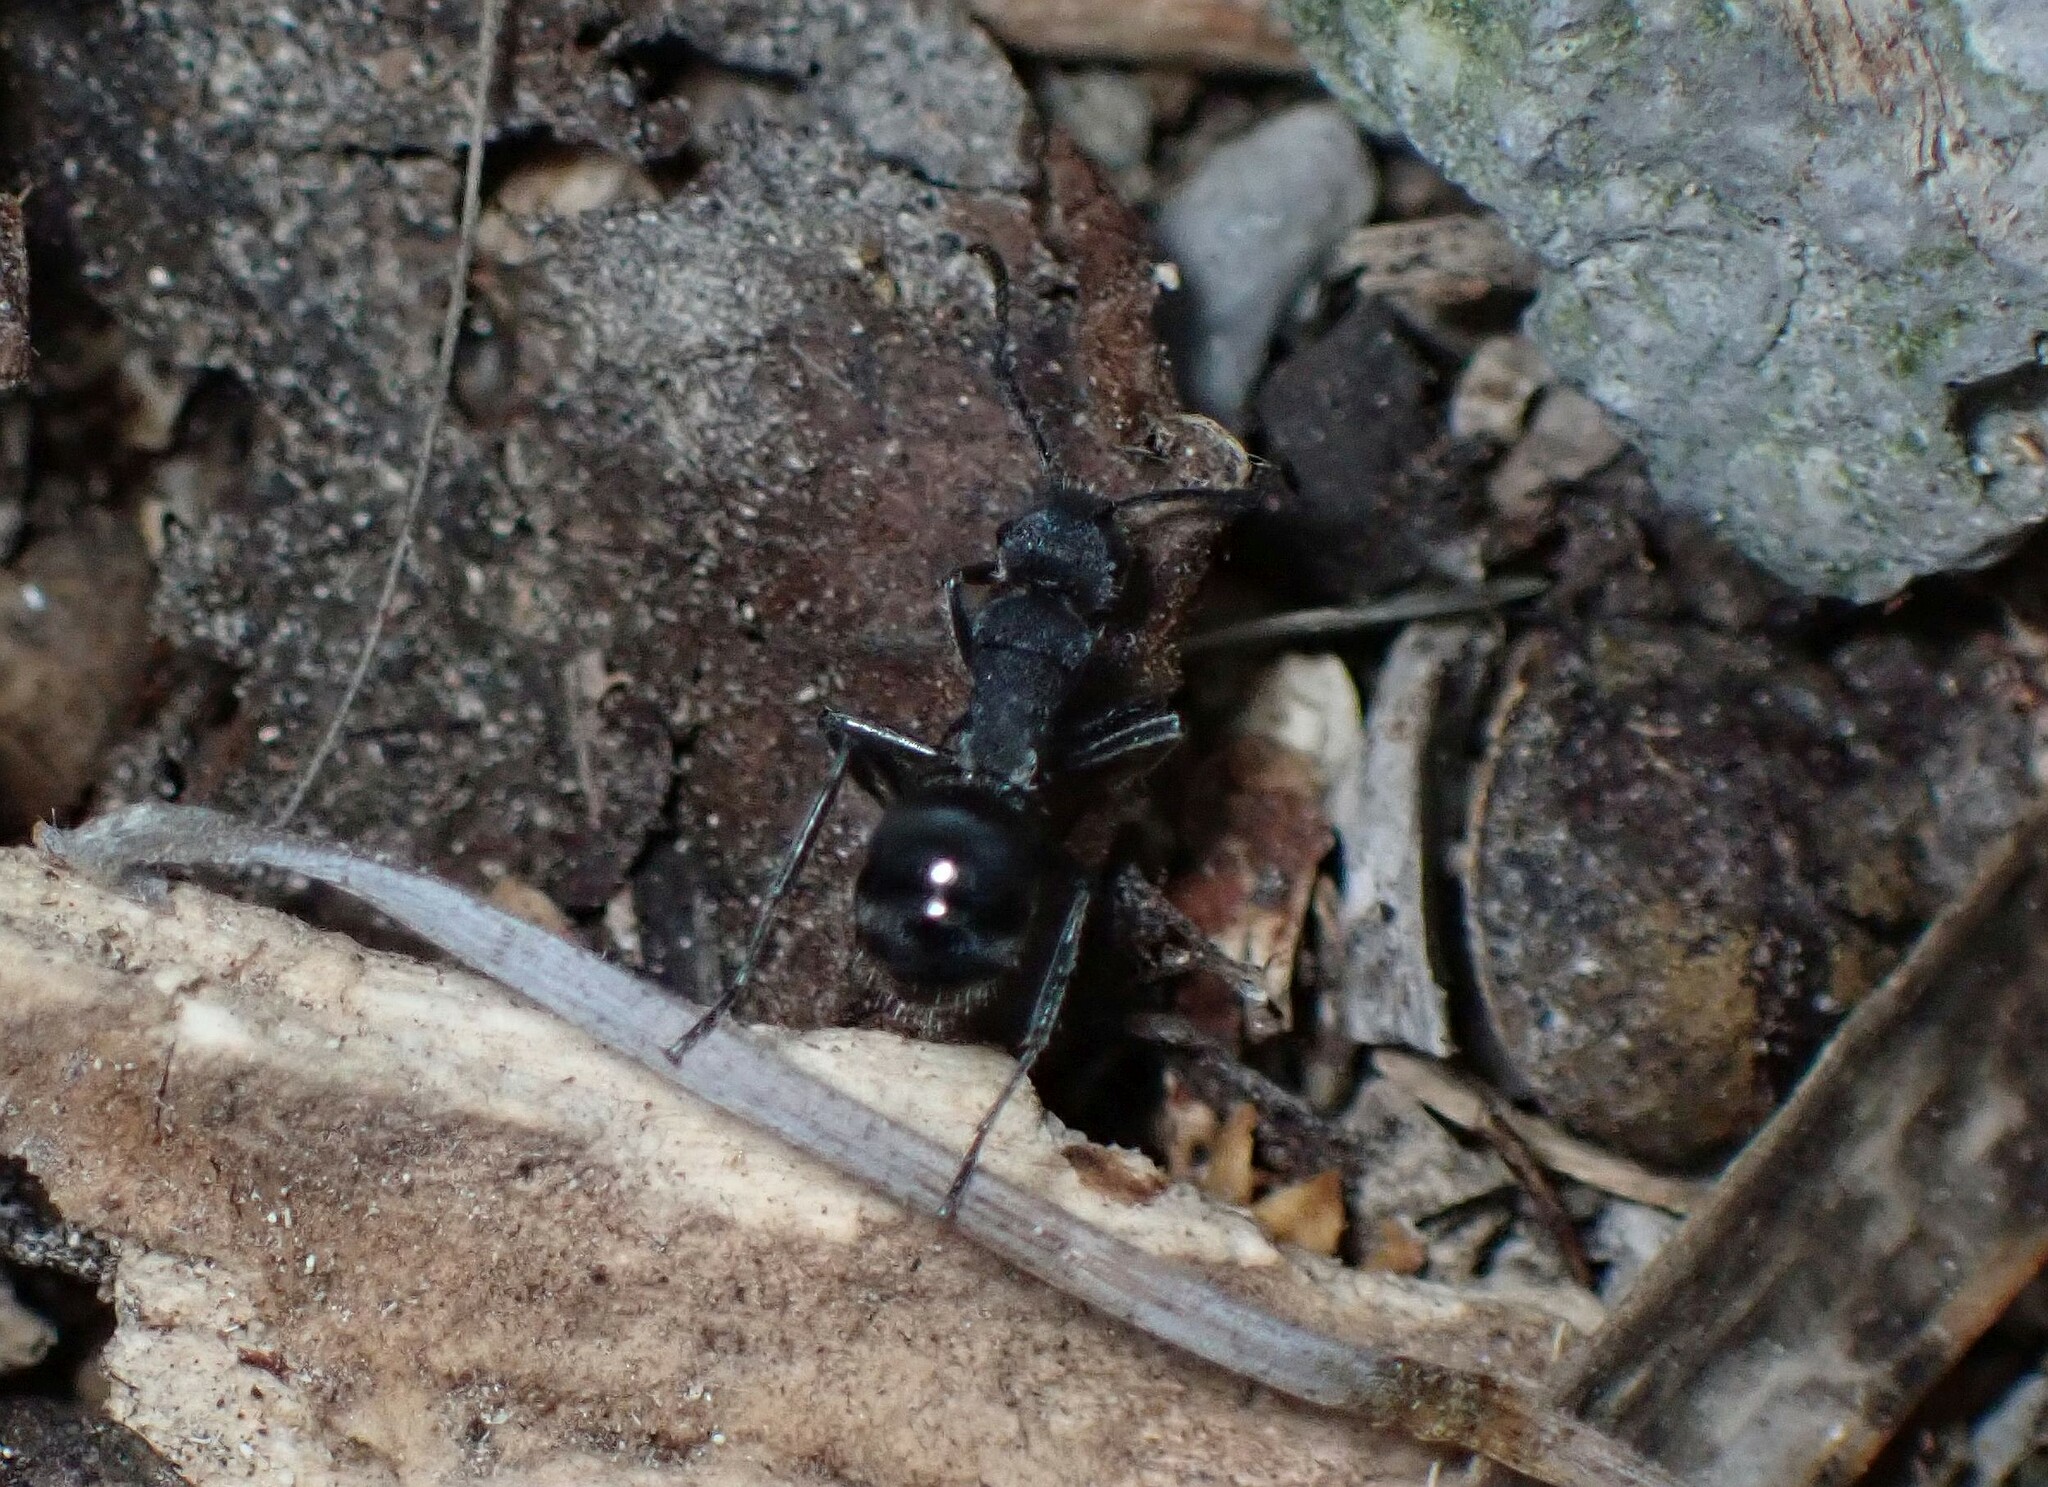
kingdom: Animalia
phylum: Arthropoda
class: Insecta
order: Hymenoptera
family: Formicidae
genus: Polyrhachis
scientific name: Polyrhachis aurea
